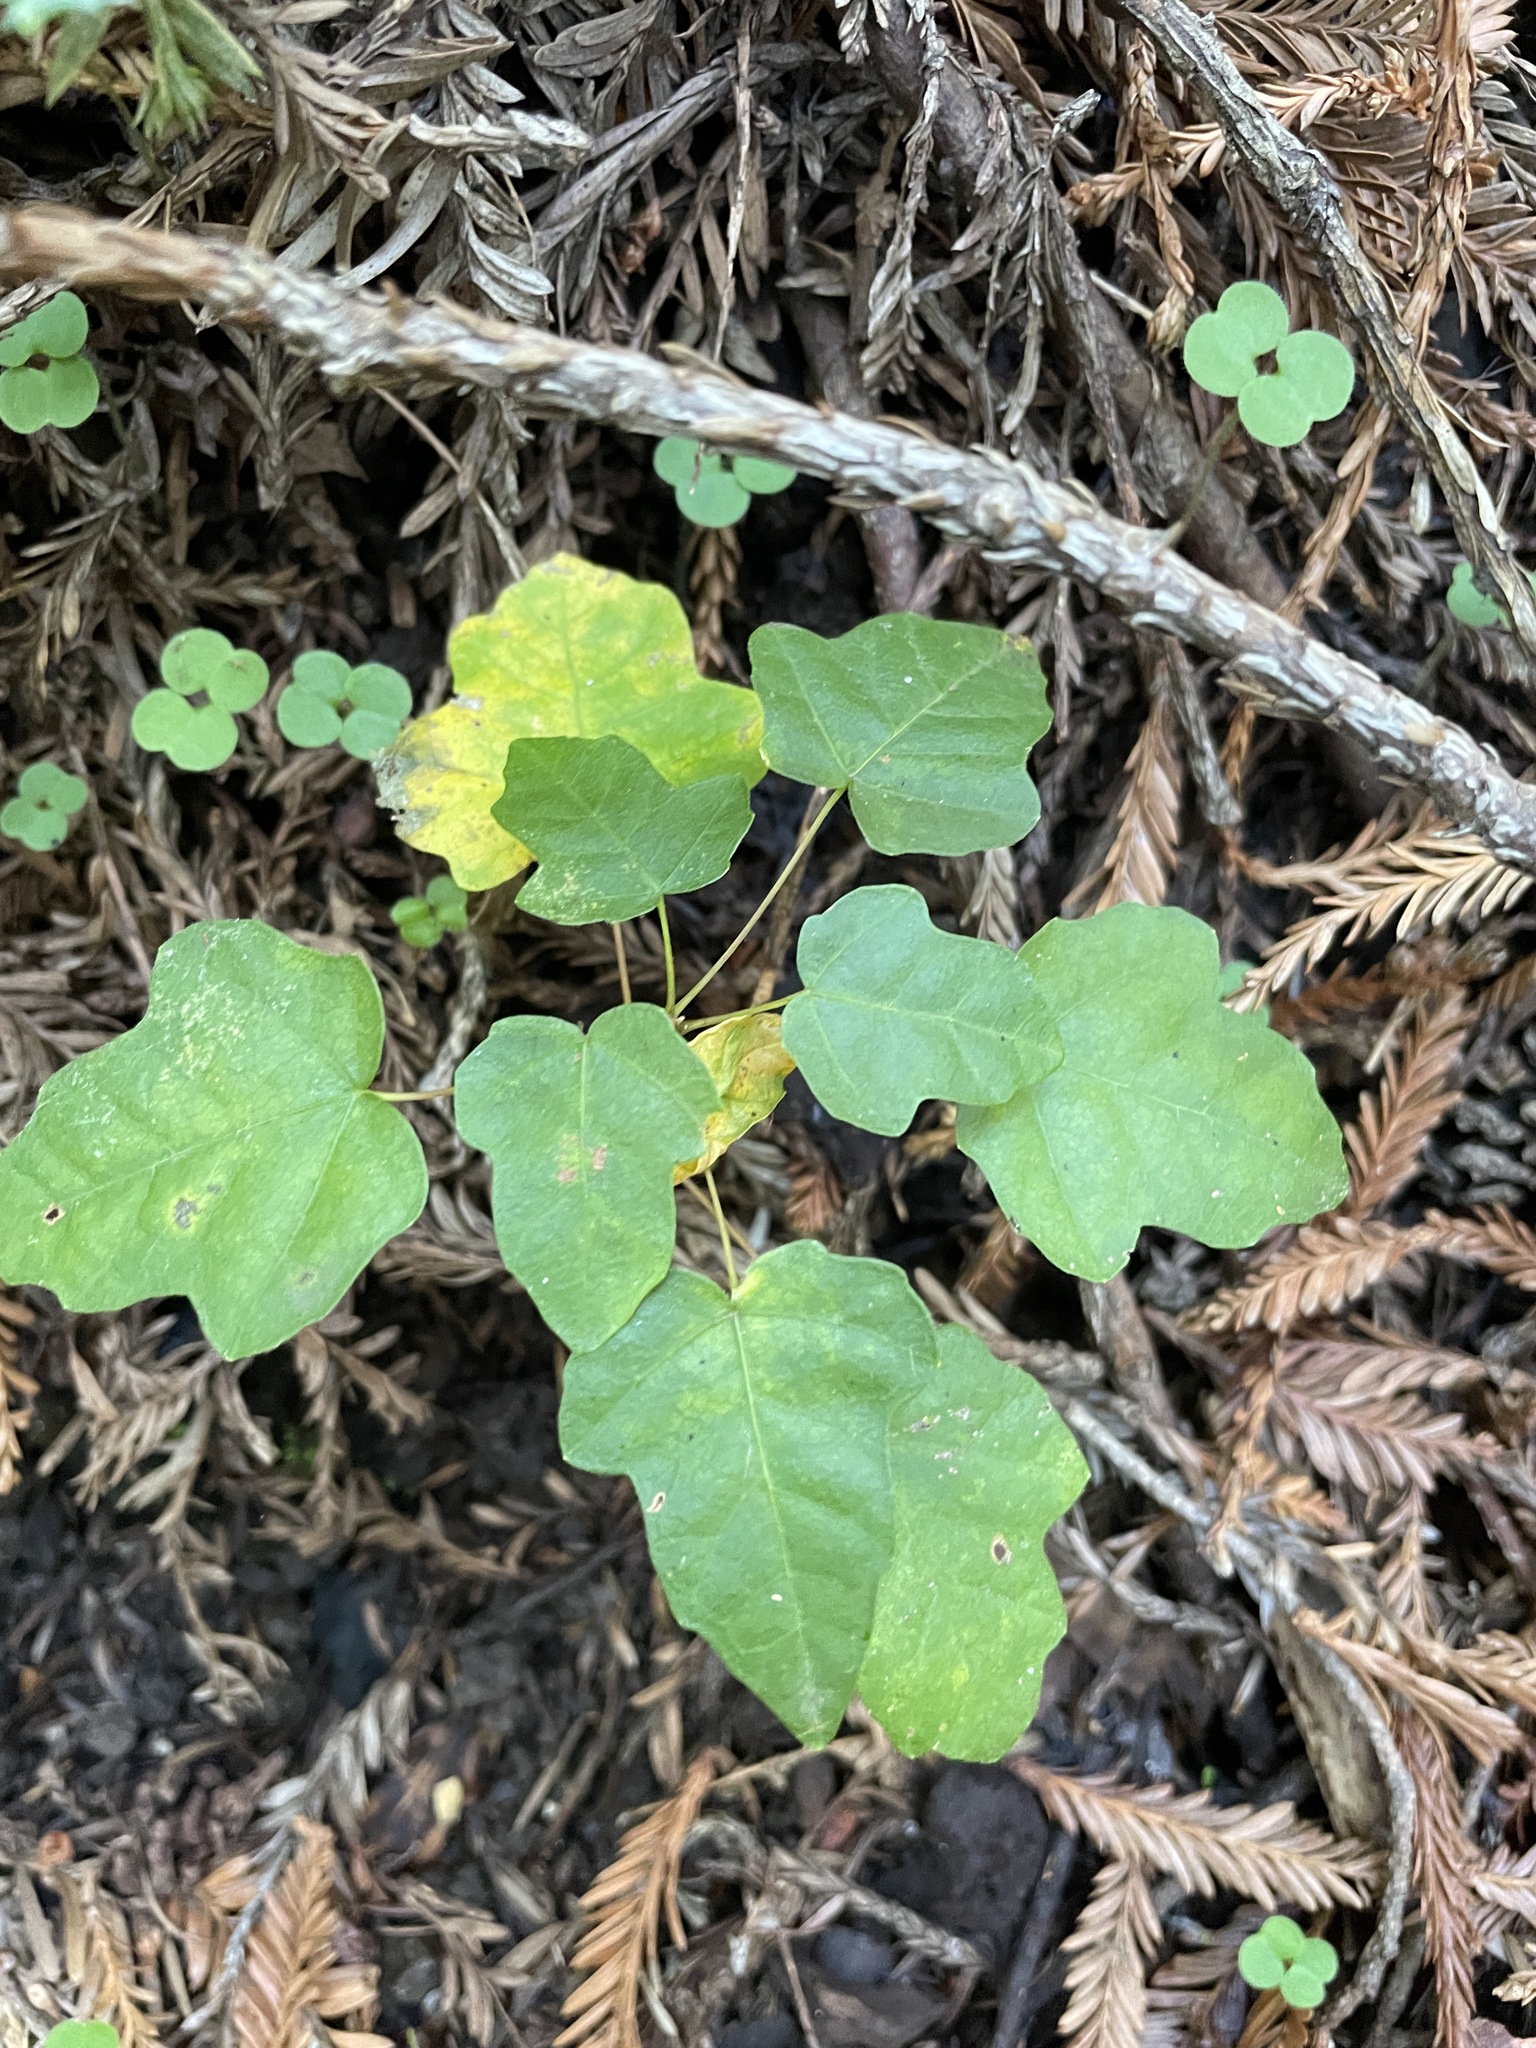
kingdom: Plantae
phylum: Tracheophyta
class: Magnoliopsida
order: Sapindales
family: Sapindaceae
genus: Acer
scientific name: Acer macrophyllum
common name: Oregon maple
